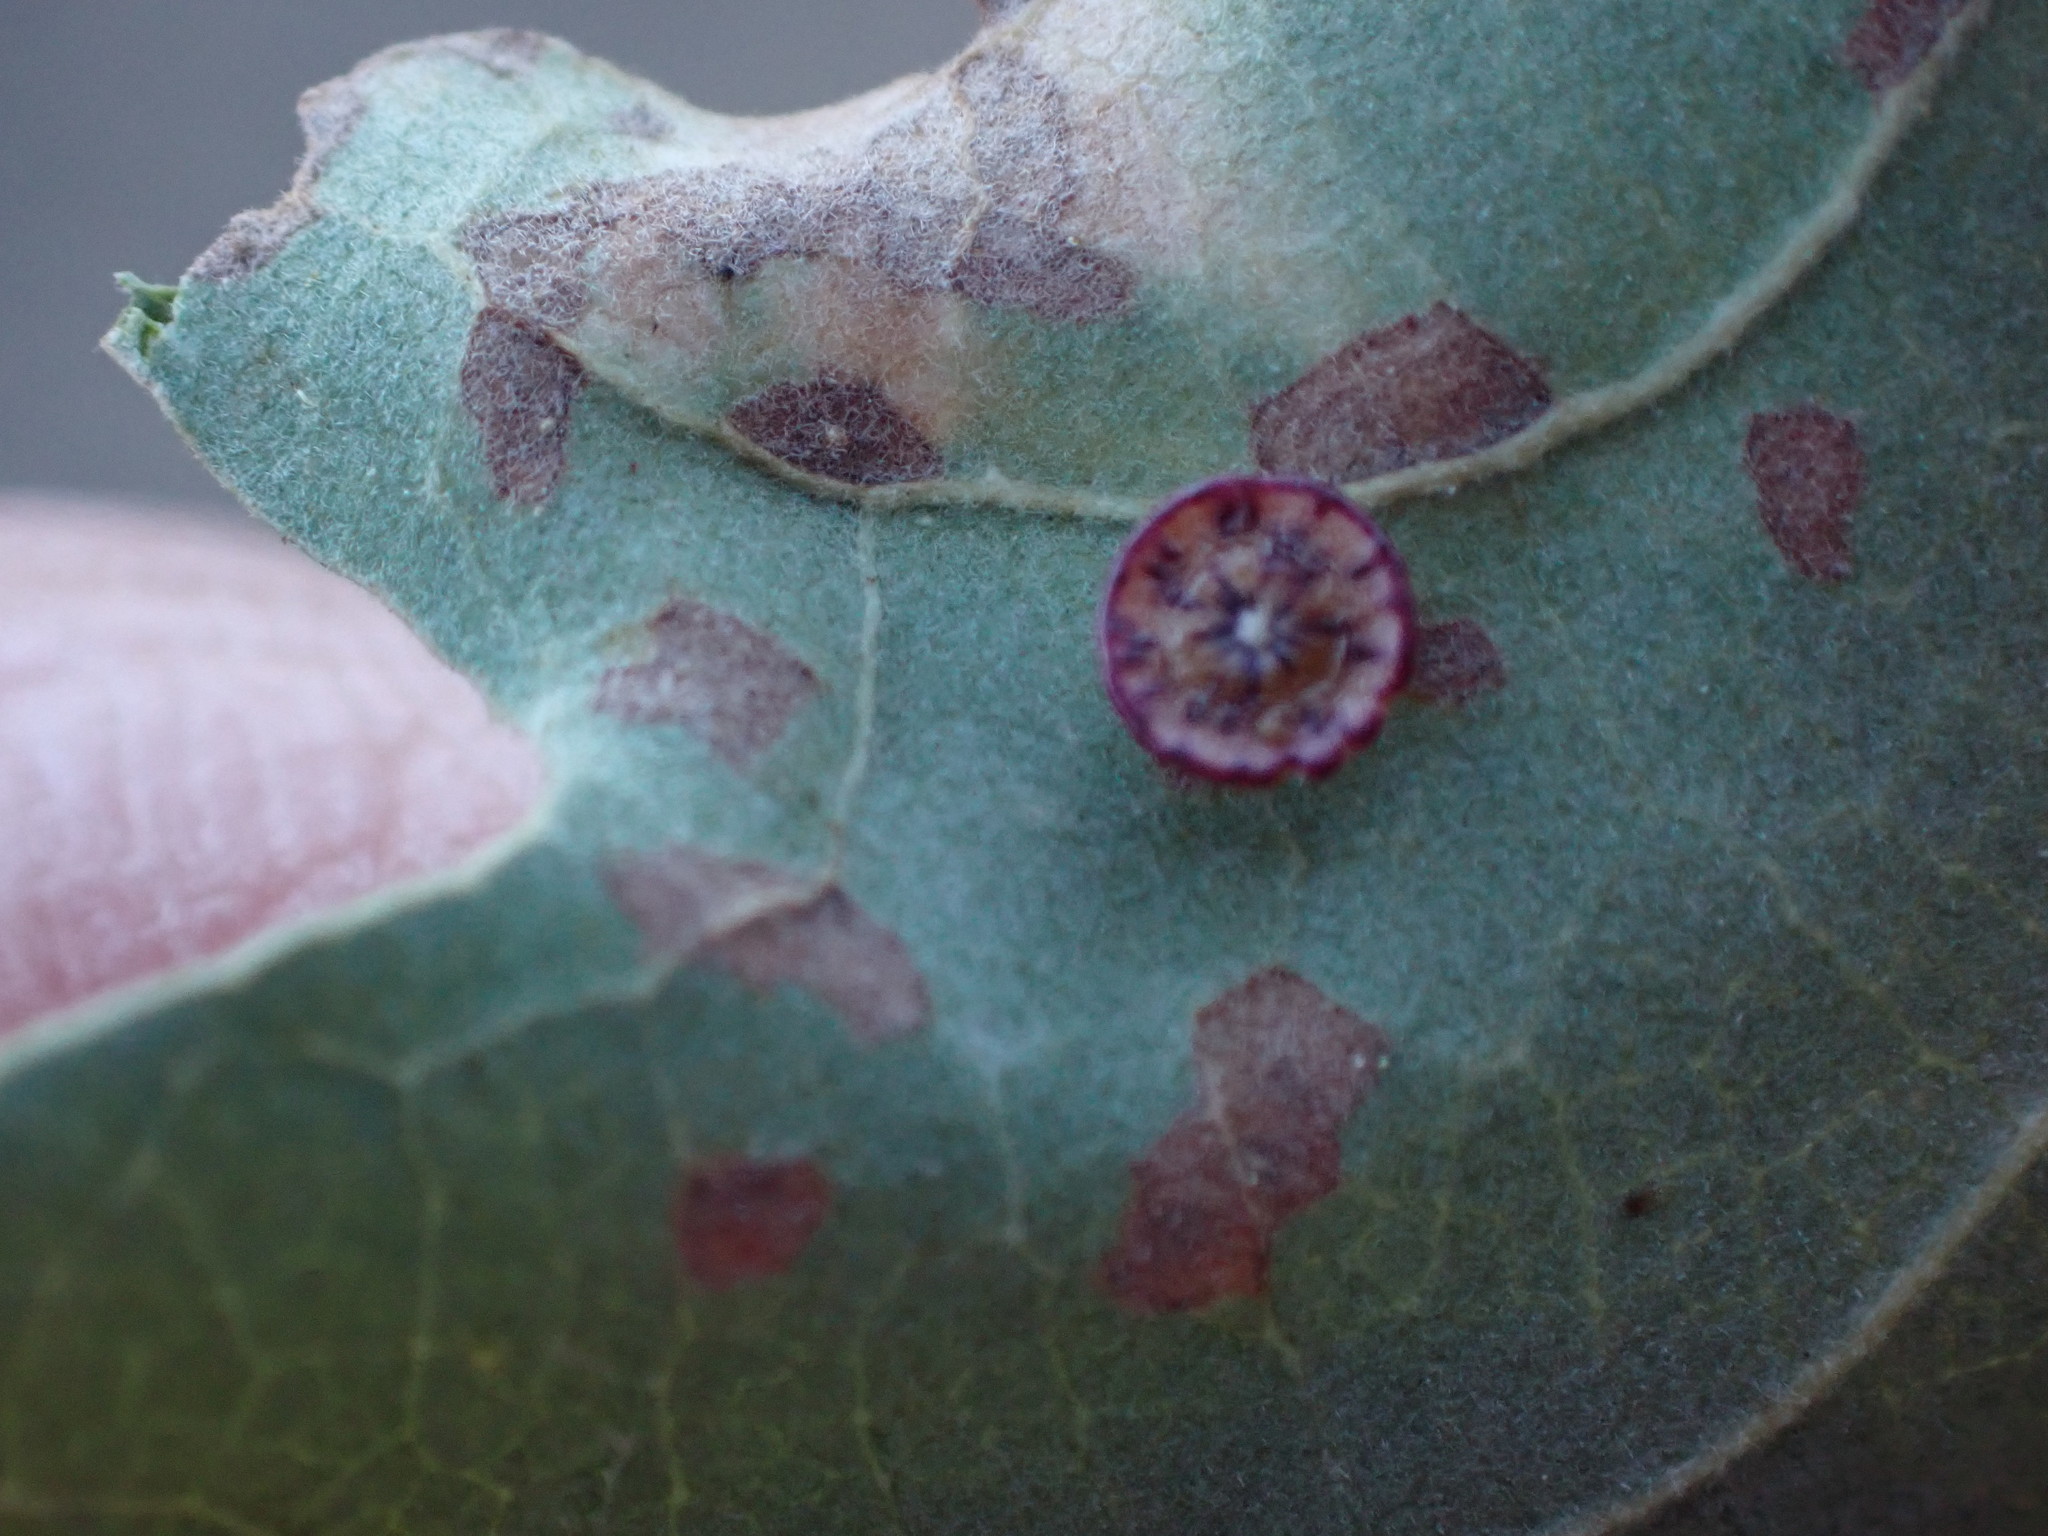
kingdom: Animalia
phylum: Arthropoda
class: Insecta
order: Hymenoptera
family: Cynipidae
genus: Andricus
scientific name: Andricus
